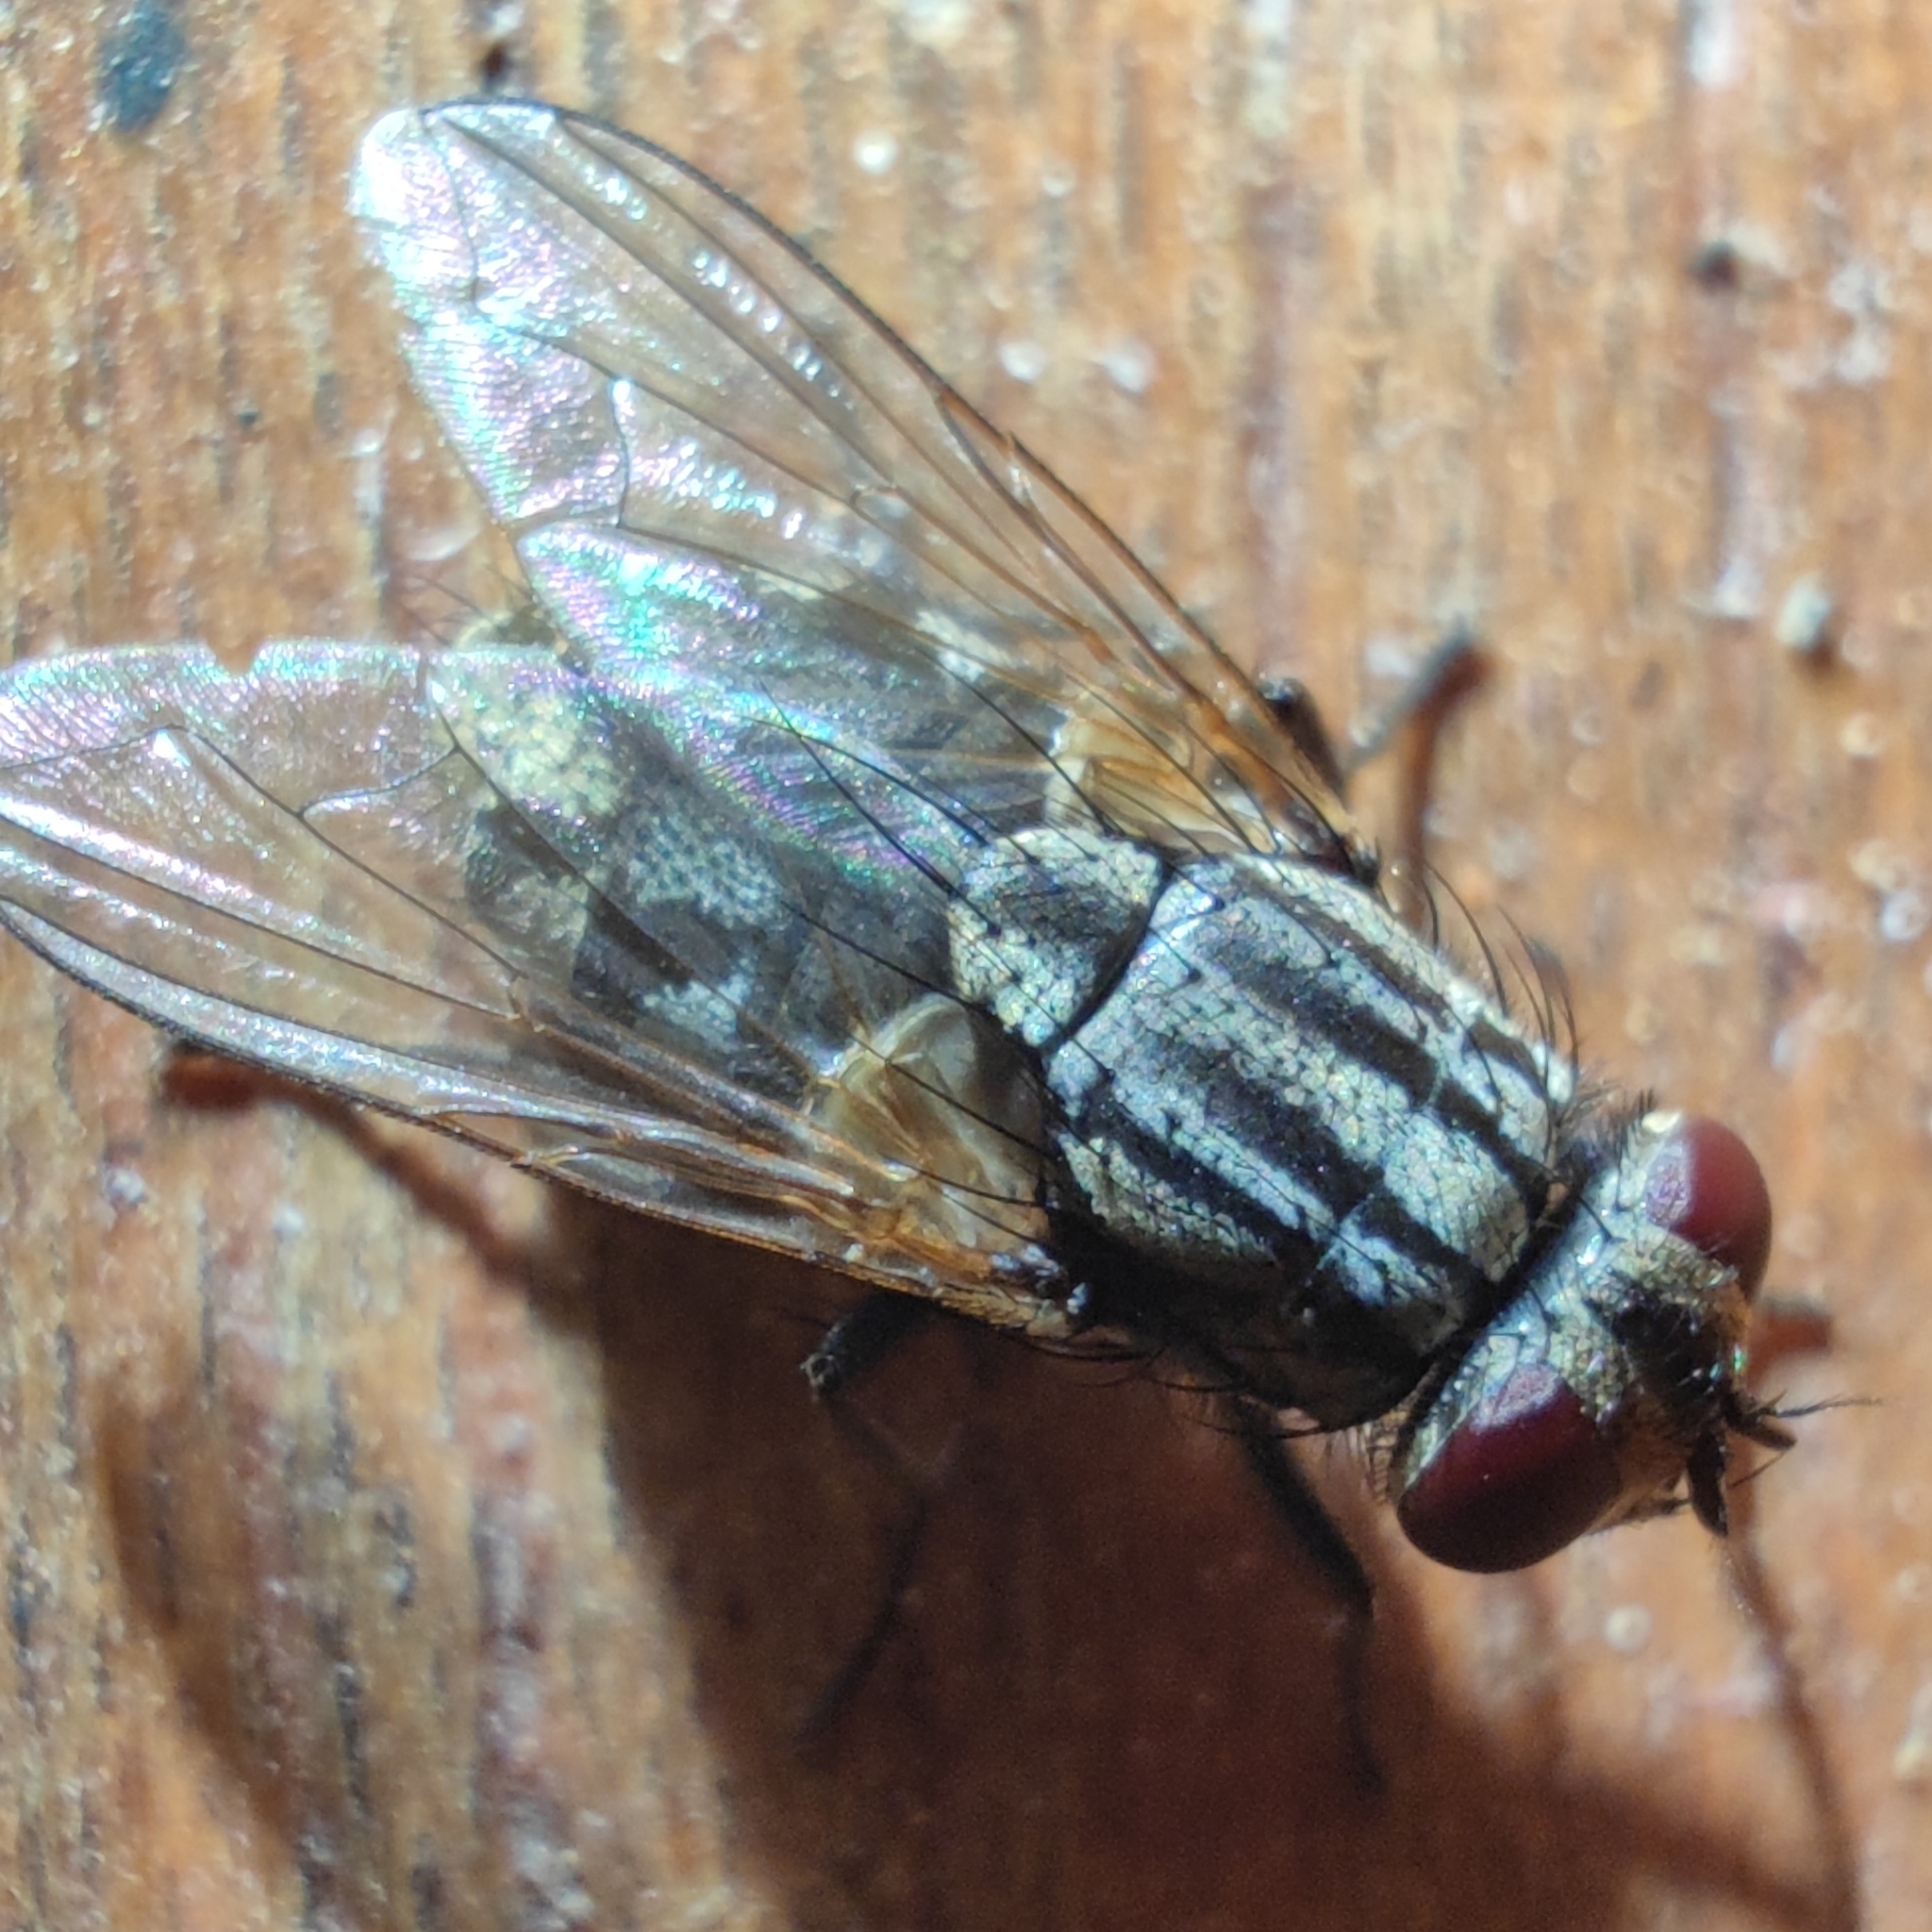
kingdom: Animalia
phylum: Arthropoda
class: Insecta
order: Diptera
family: Muscidae
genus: Musca
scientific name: Musca domestica
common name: House fly
